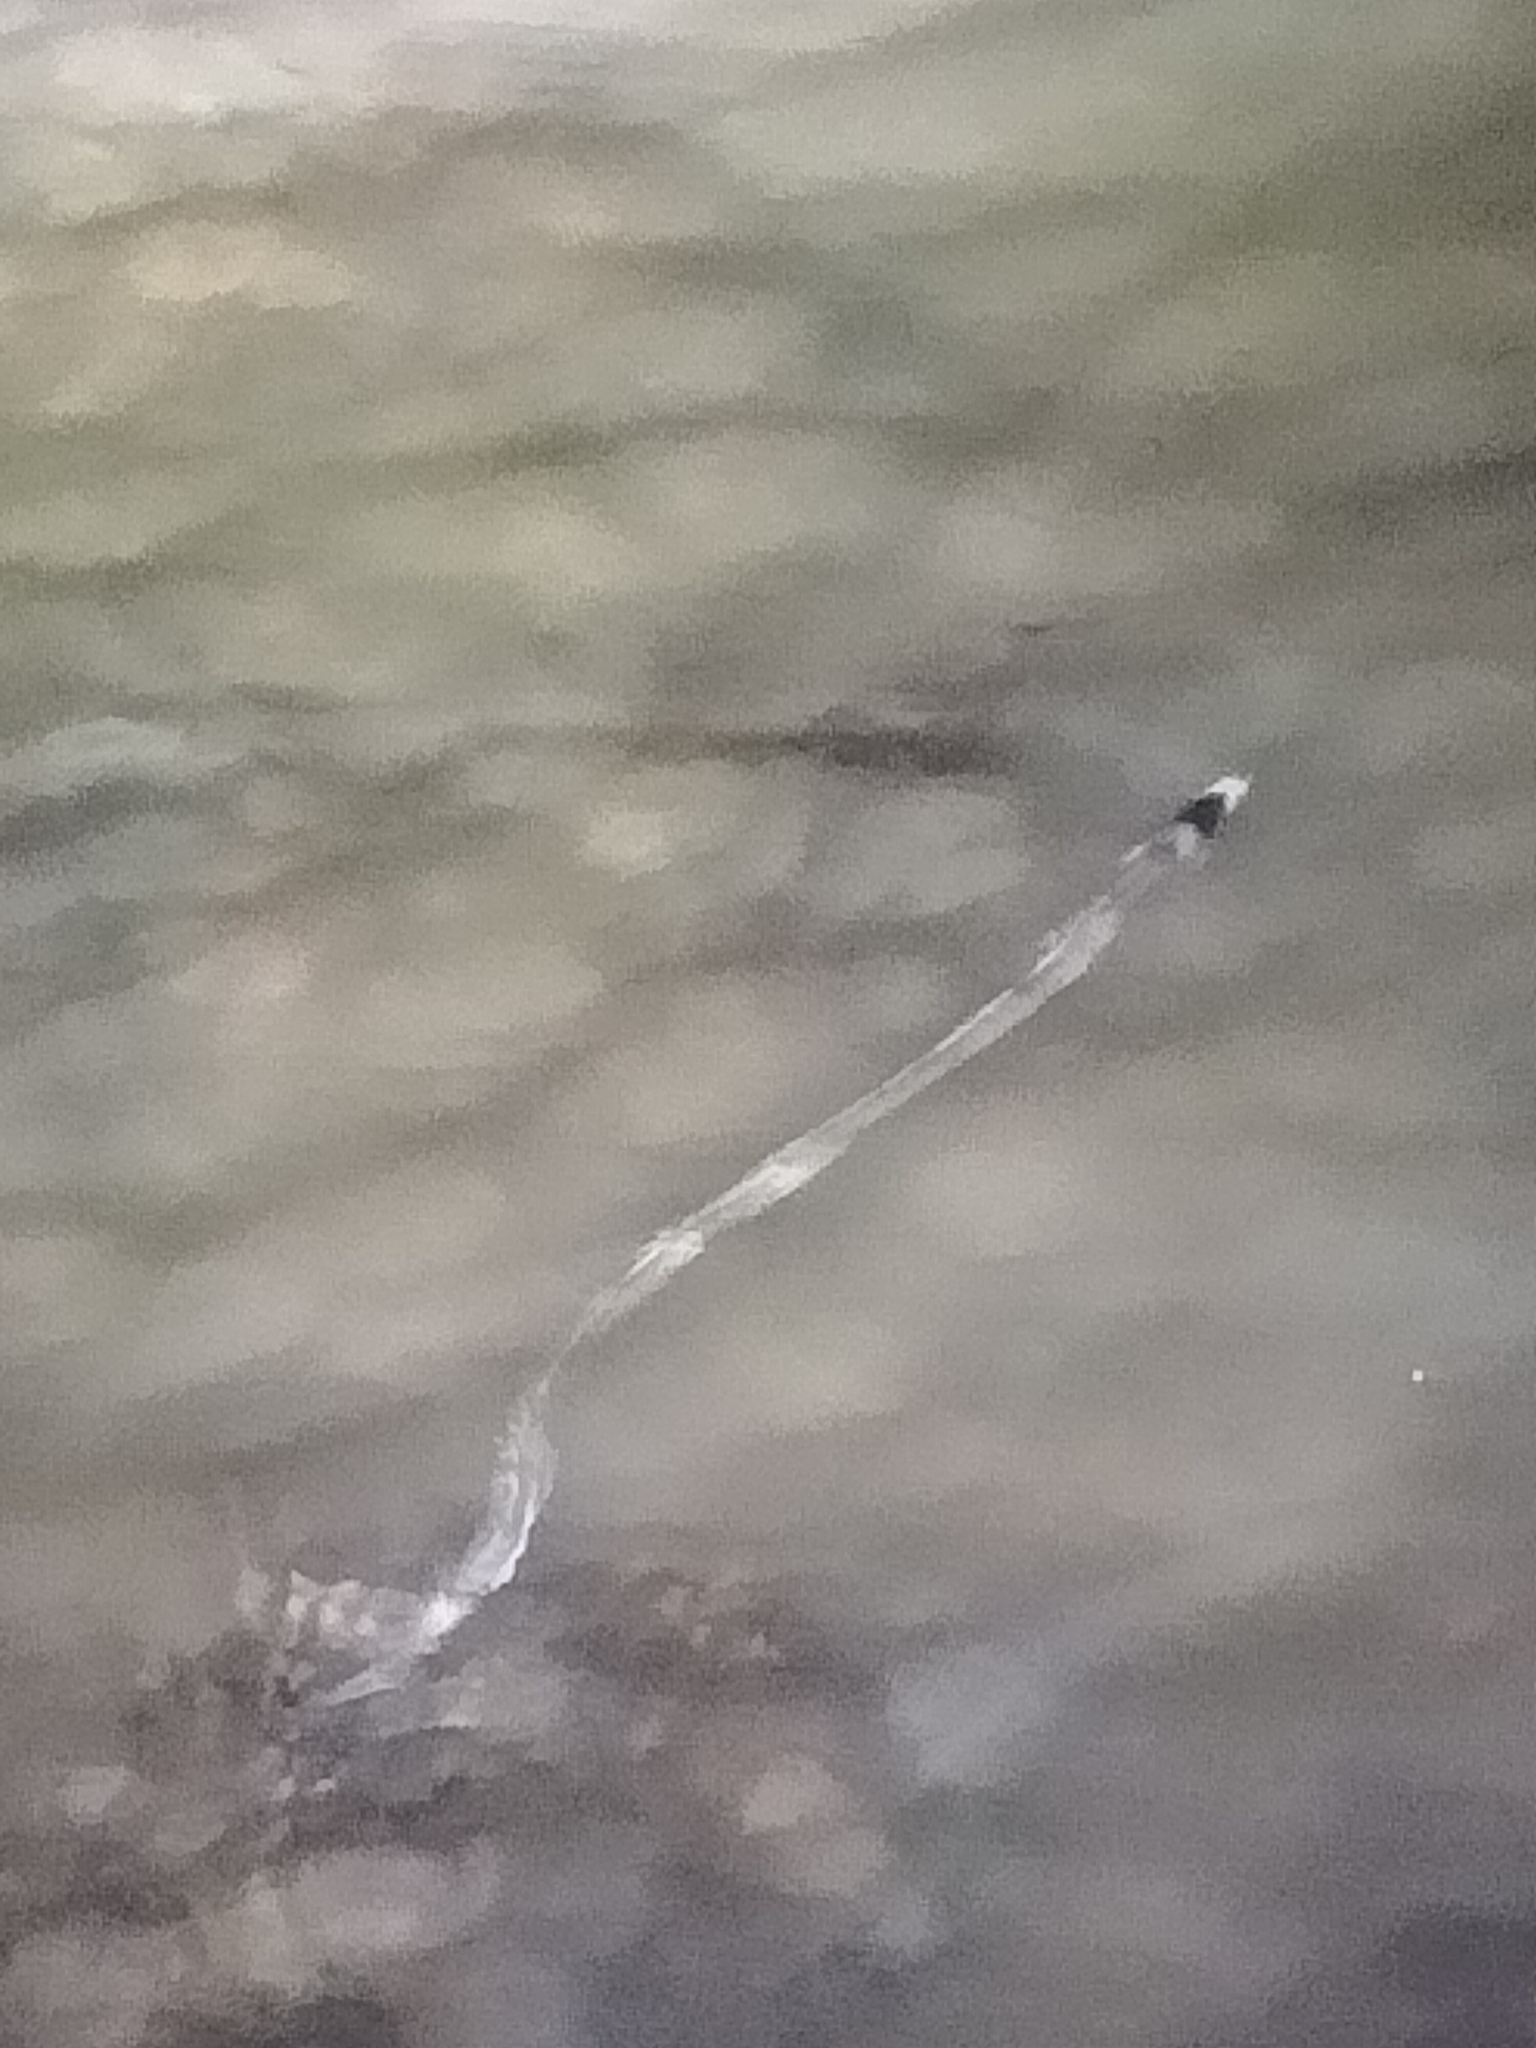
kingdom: Animalia
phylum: Chordata
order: Anguilliformes
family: Ophichthidae
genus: Ophichthus
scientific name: Ophichthus cephalozona
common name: Dark-shouldered snake eel
